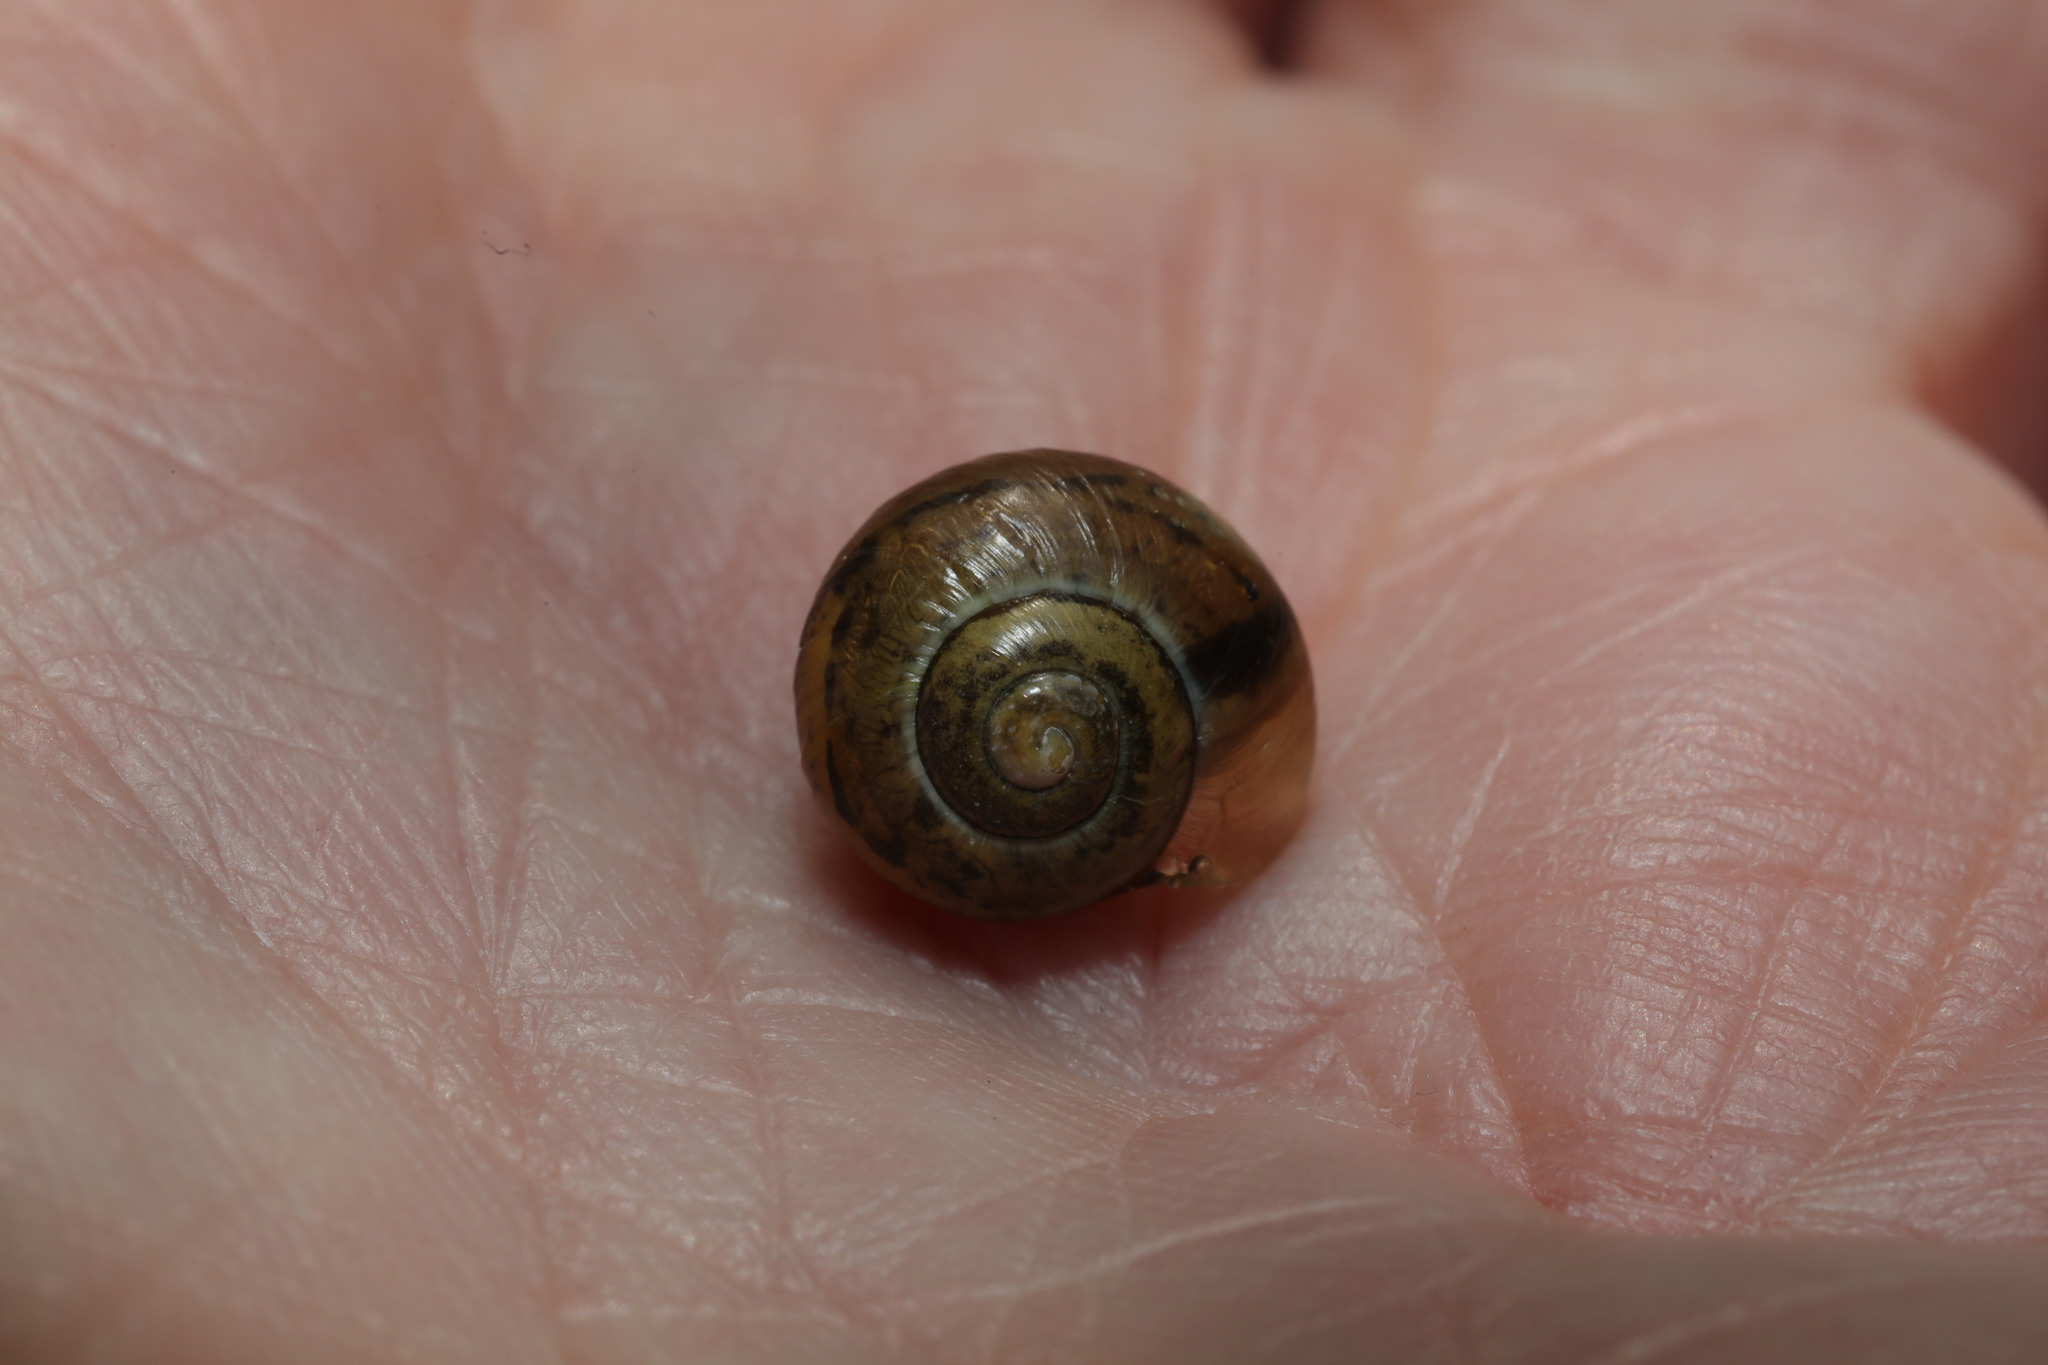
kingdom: Animalia
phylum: Mollusca
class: Gastropoda
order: Stylommatophora
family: Helicidae
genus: Arianta
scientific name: Arianta arbustorum
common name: Copse snail
